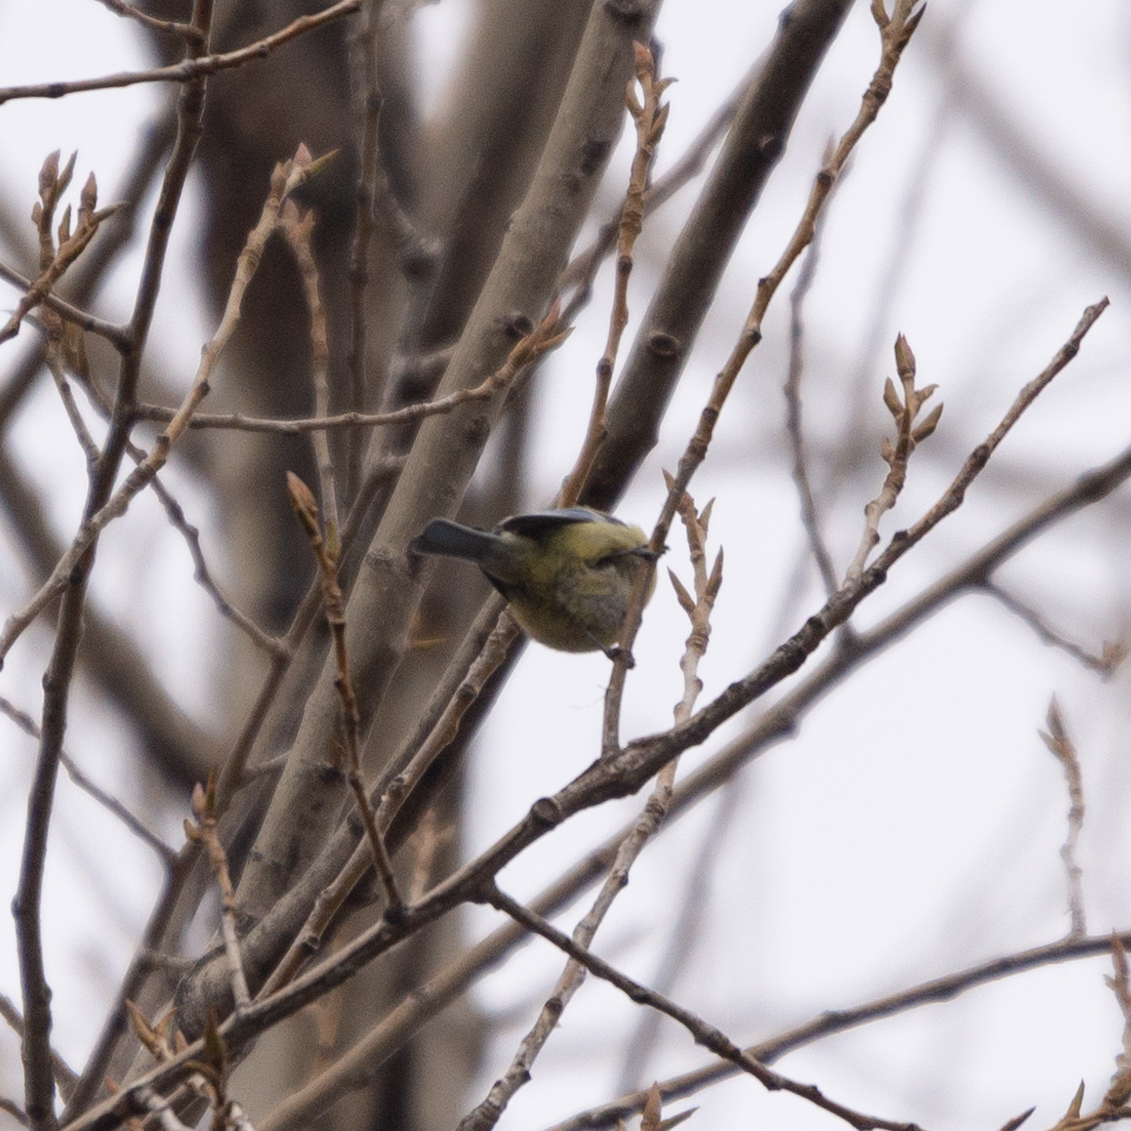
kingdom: Animalia
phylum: Chordata
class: Aves
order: Passeriformes
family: Paridae
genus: Cyanistes
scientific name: Cyanistes caeruleus
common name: Eurasian blue tit
